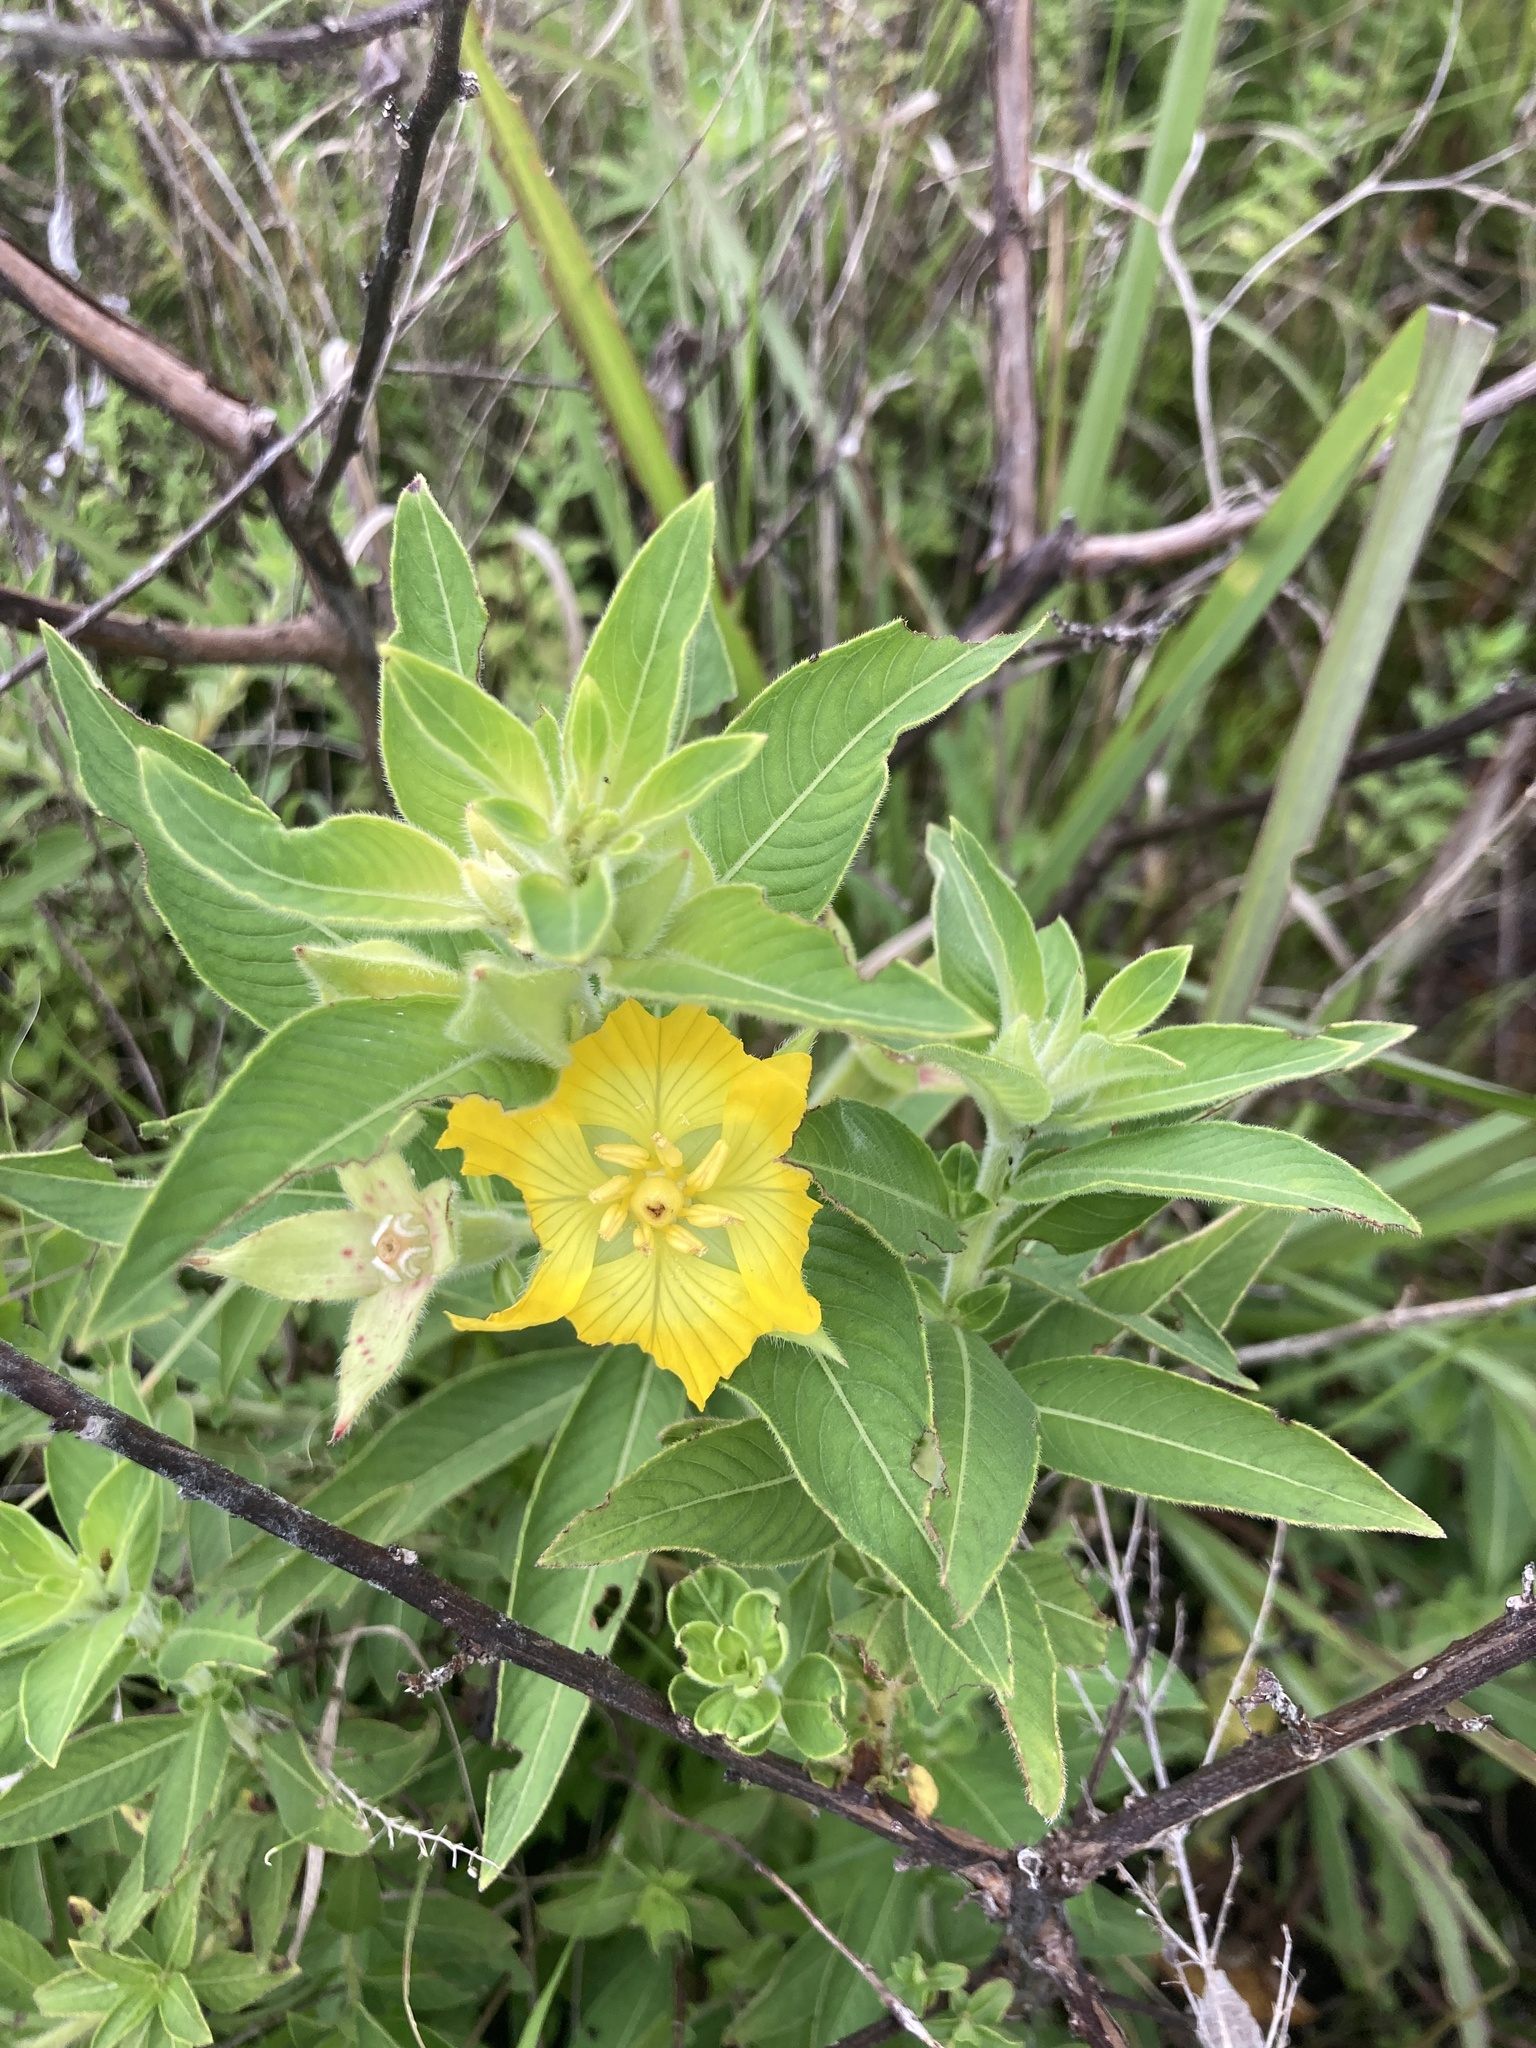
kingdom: Plantae
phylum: Tracheophyta
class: Magnoliopsida
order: Myrtales
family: Onagraceae
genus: Ludwigia
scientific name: Ludwigia peruviana
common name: Peruvian primrose-willow
